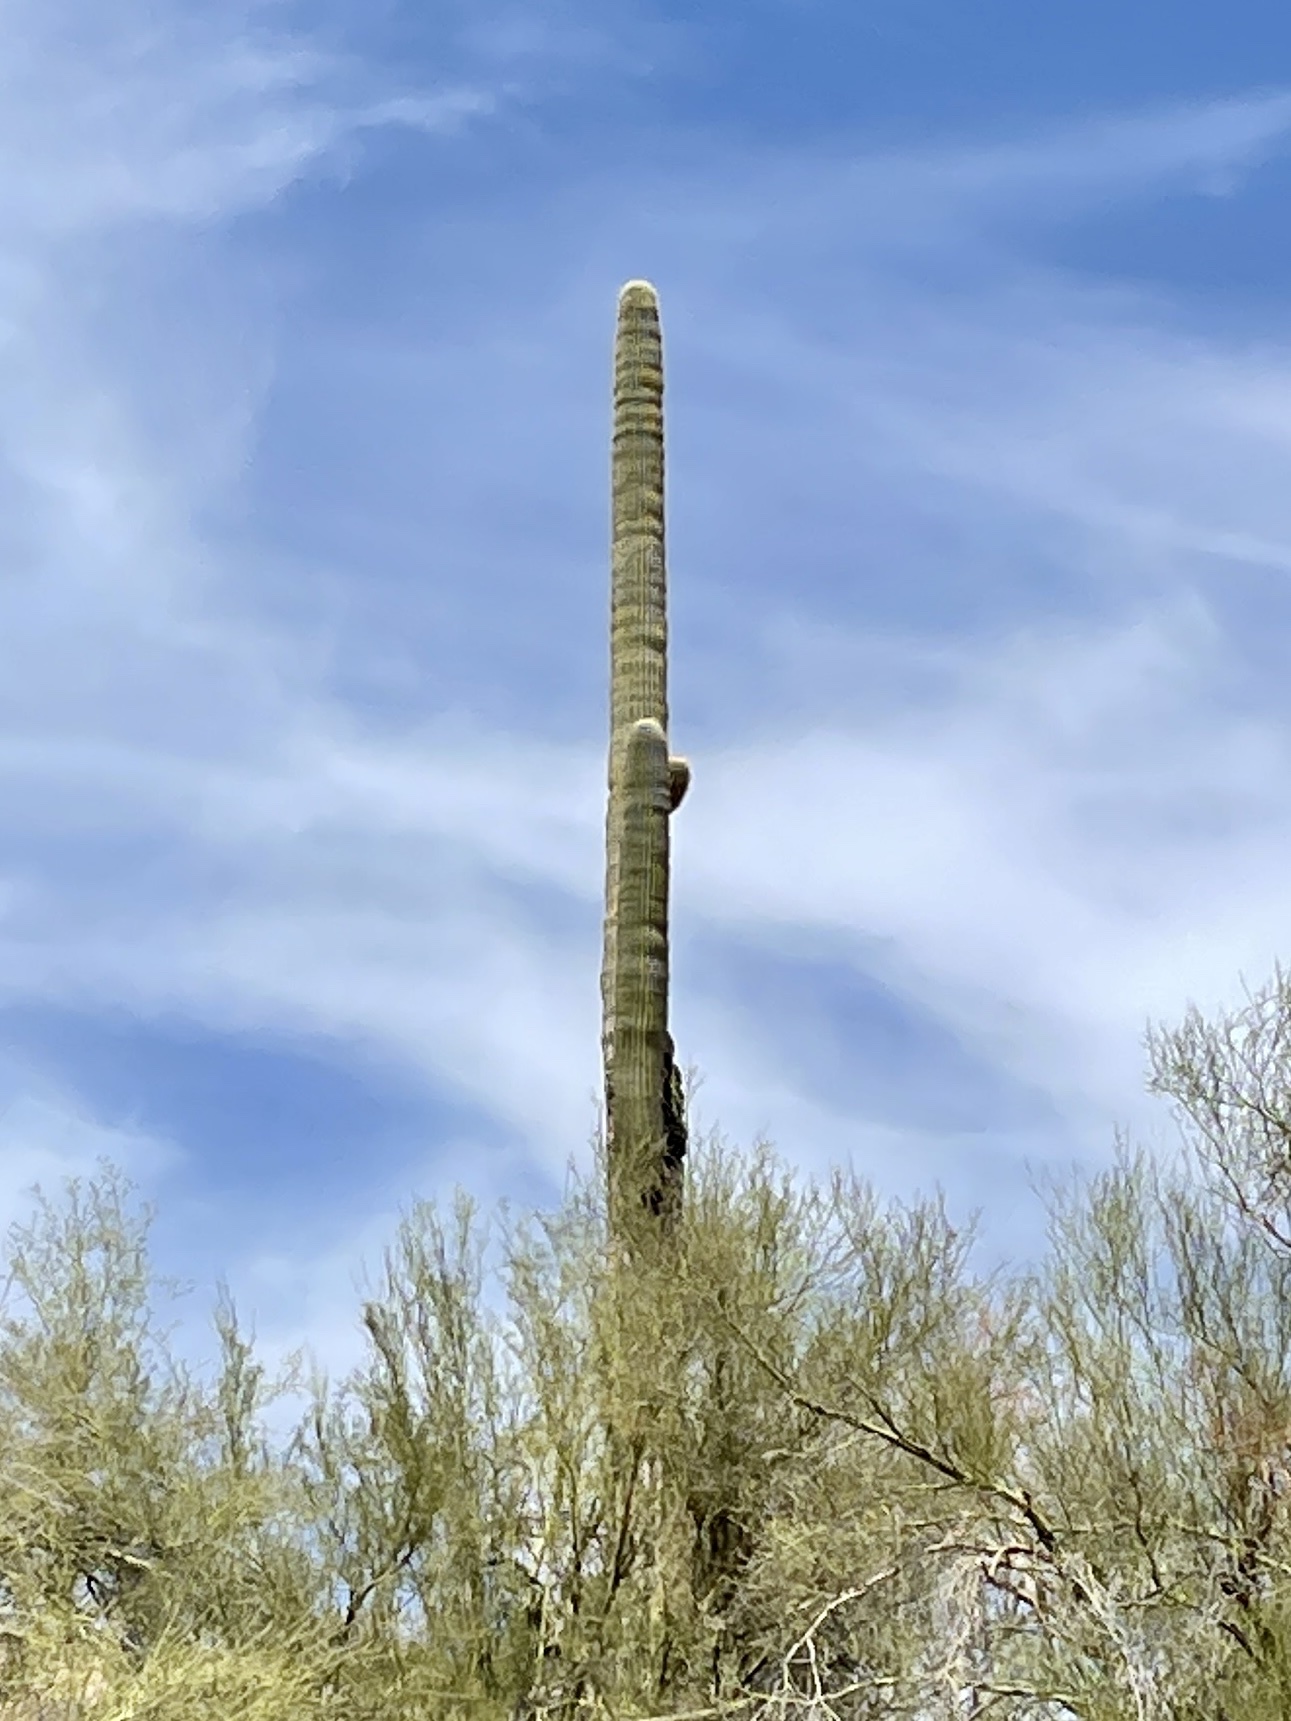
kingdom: Plantae
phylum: Tracheophyta
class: Magnoliopsida
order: Caryophyllales
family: Cactaceae
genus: Carnegiea
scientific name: Carnegiea gigantea
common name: Saguaro
